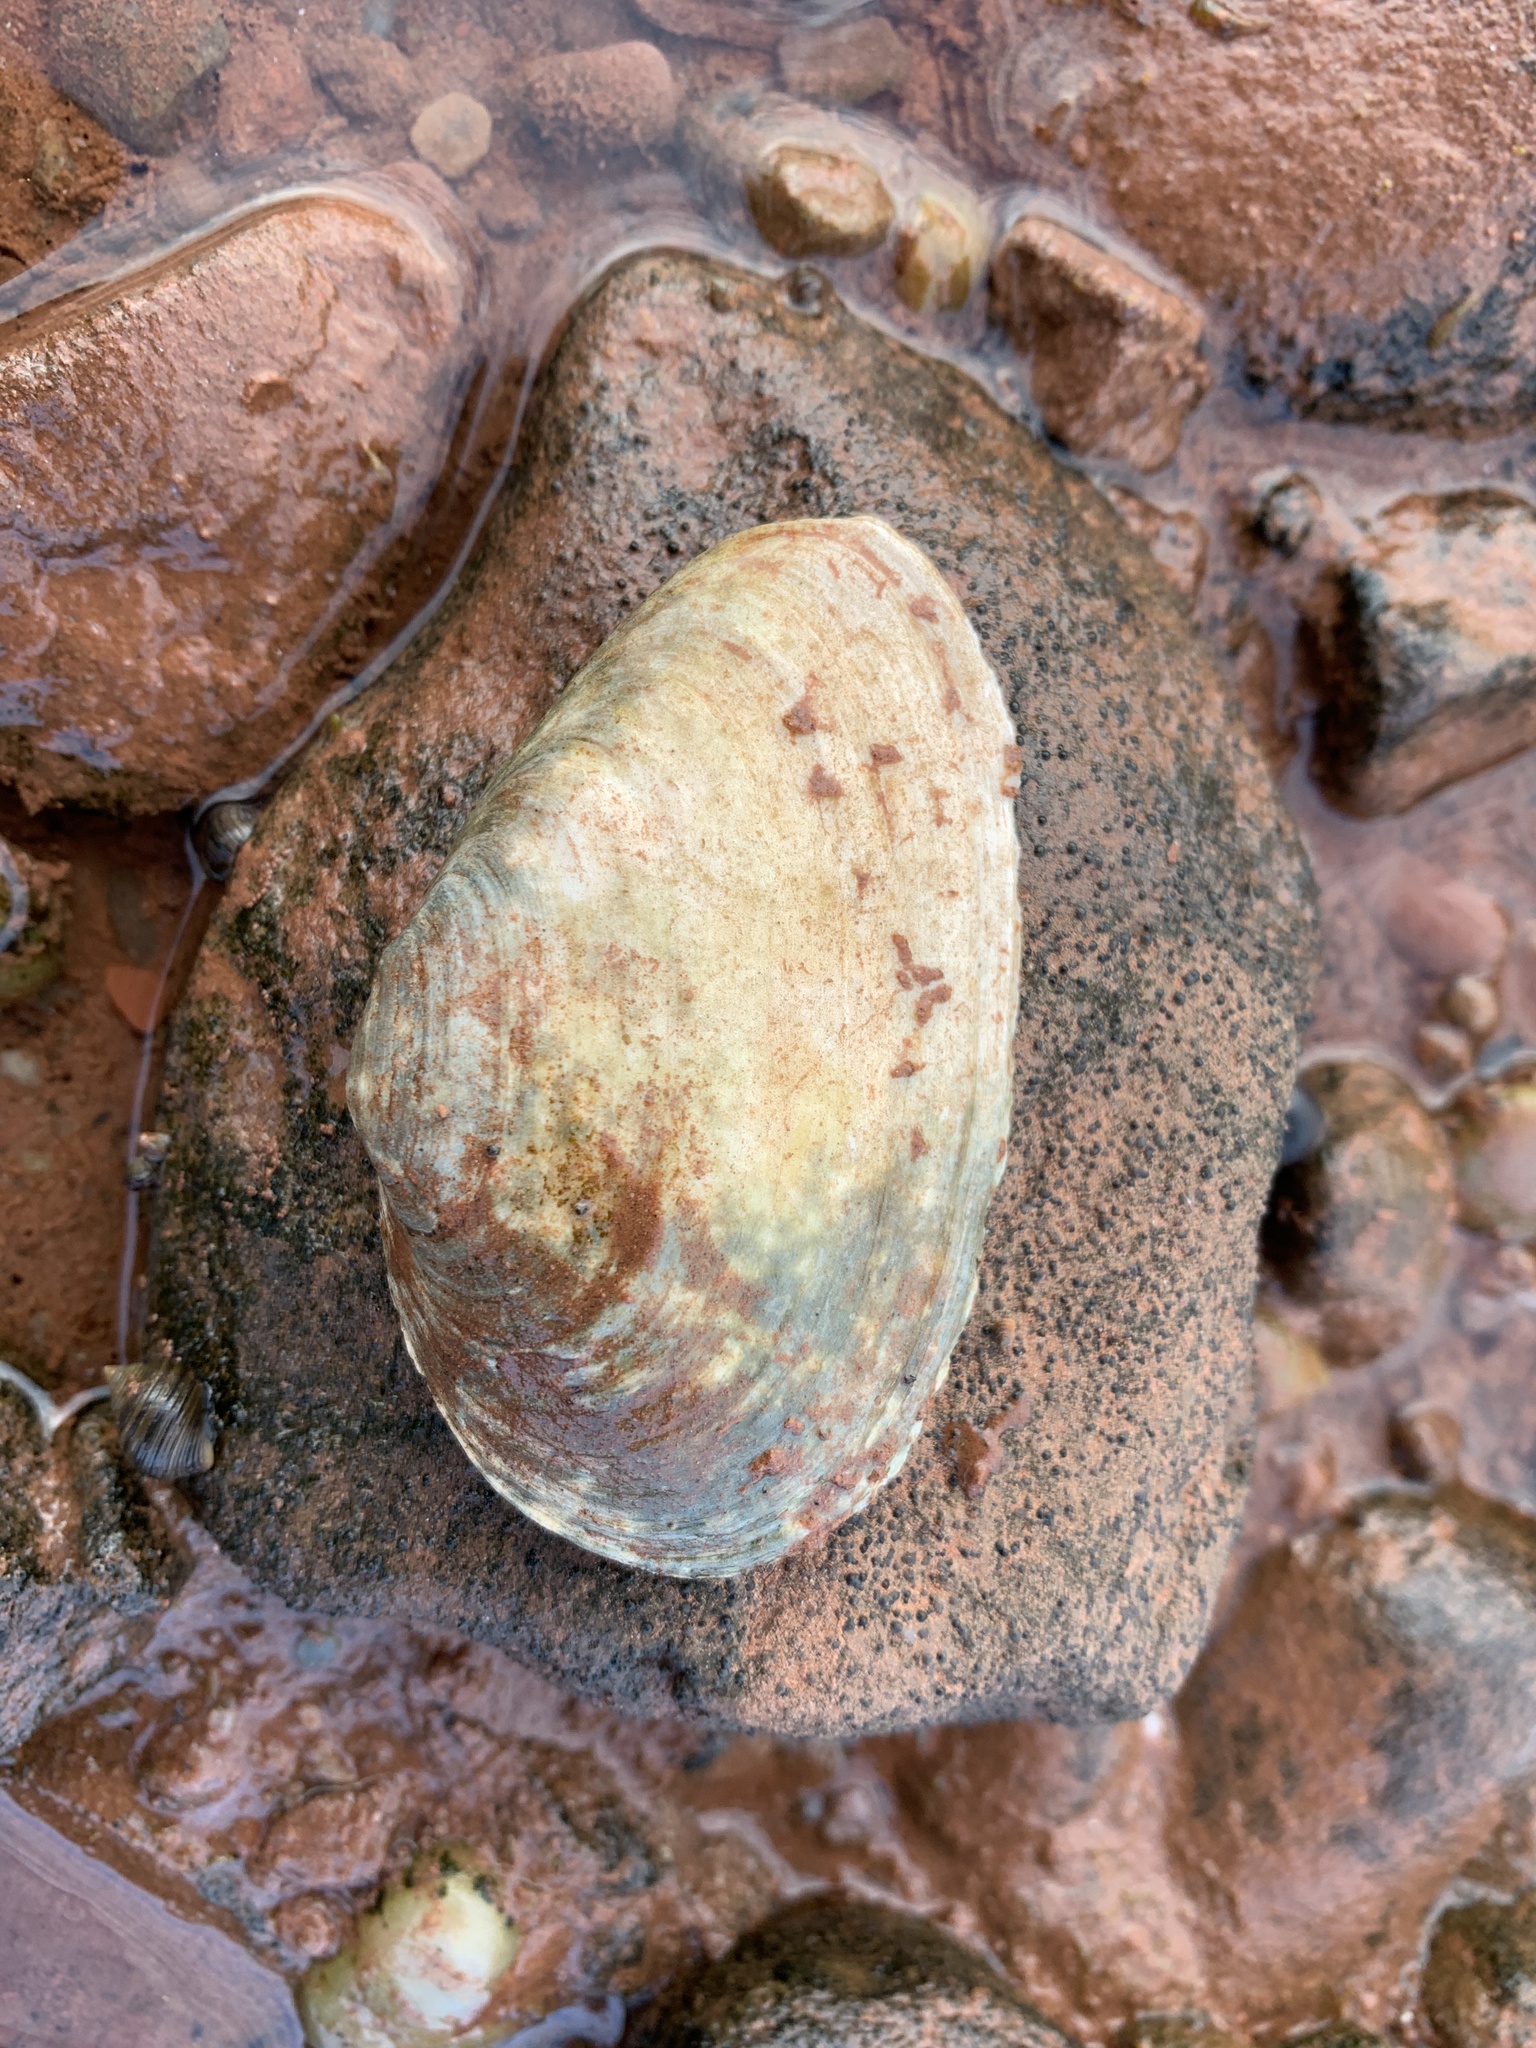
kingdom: Animalia
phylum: Mollusca
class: Bivalvia
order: Myida
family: Myidae
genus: Mya
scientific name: Mya arenaria
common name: Soft-shelled clam
